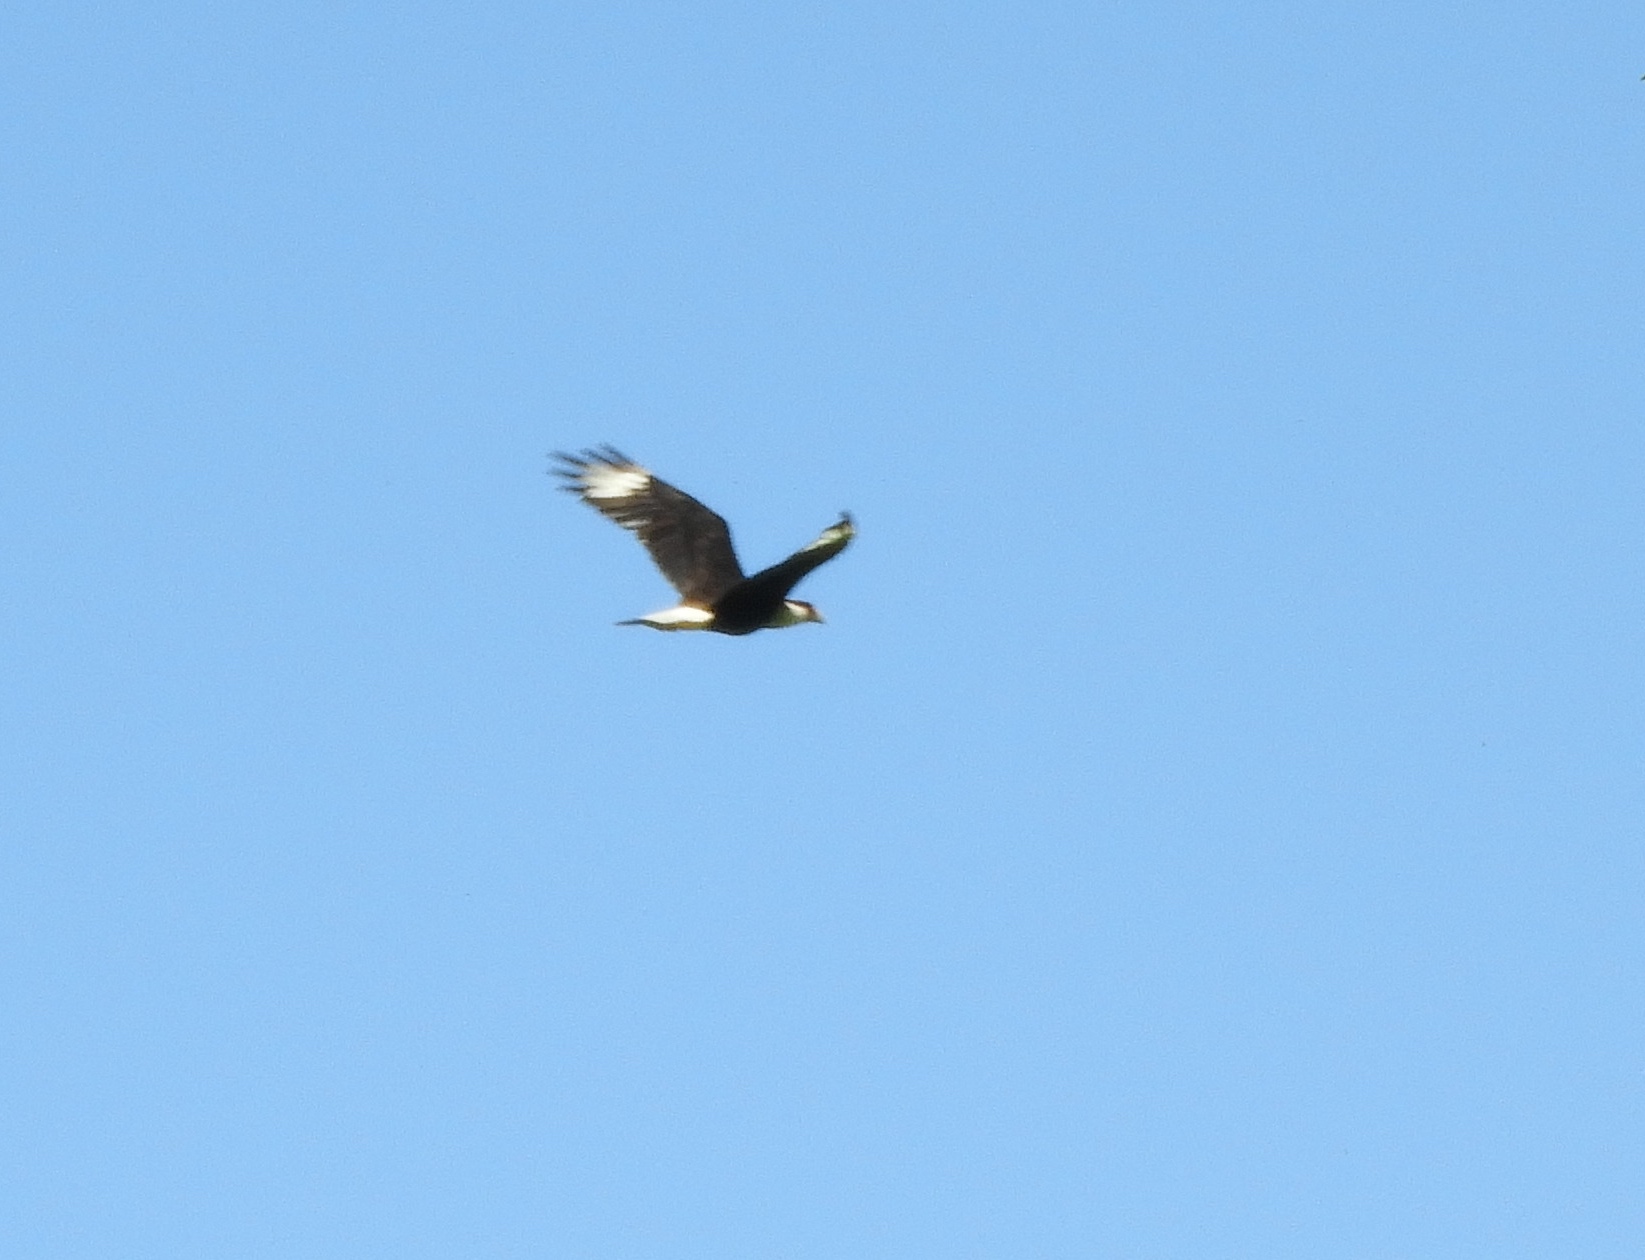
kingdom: Animalia
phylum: Chordata
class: Aves
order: Falconiformes
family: Falconidae
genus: Caracara
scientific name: Caracara plancus
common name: Southern caracara
